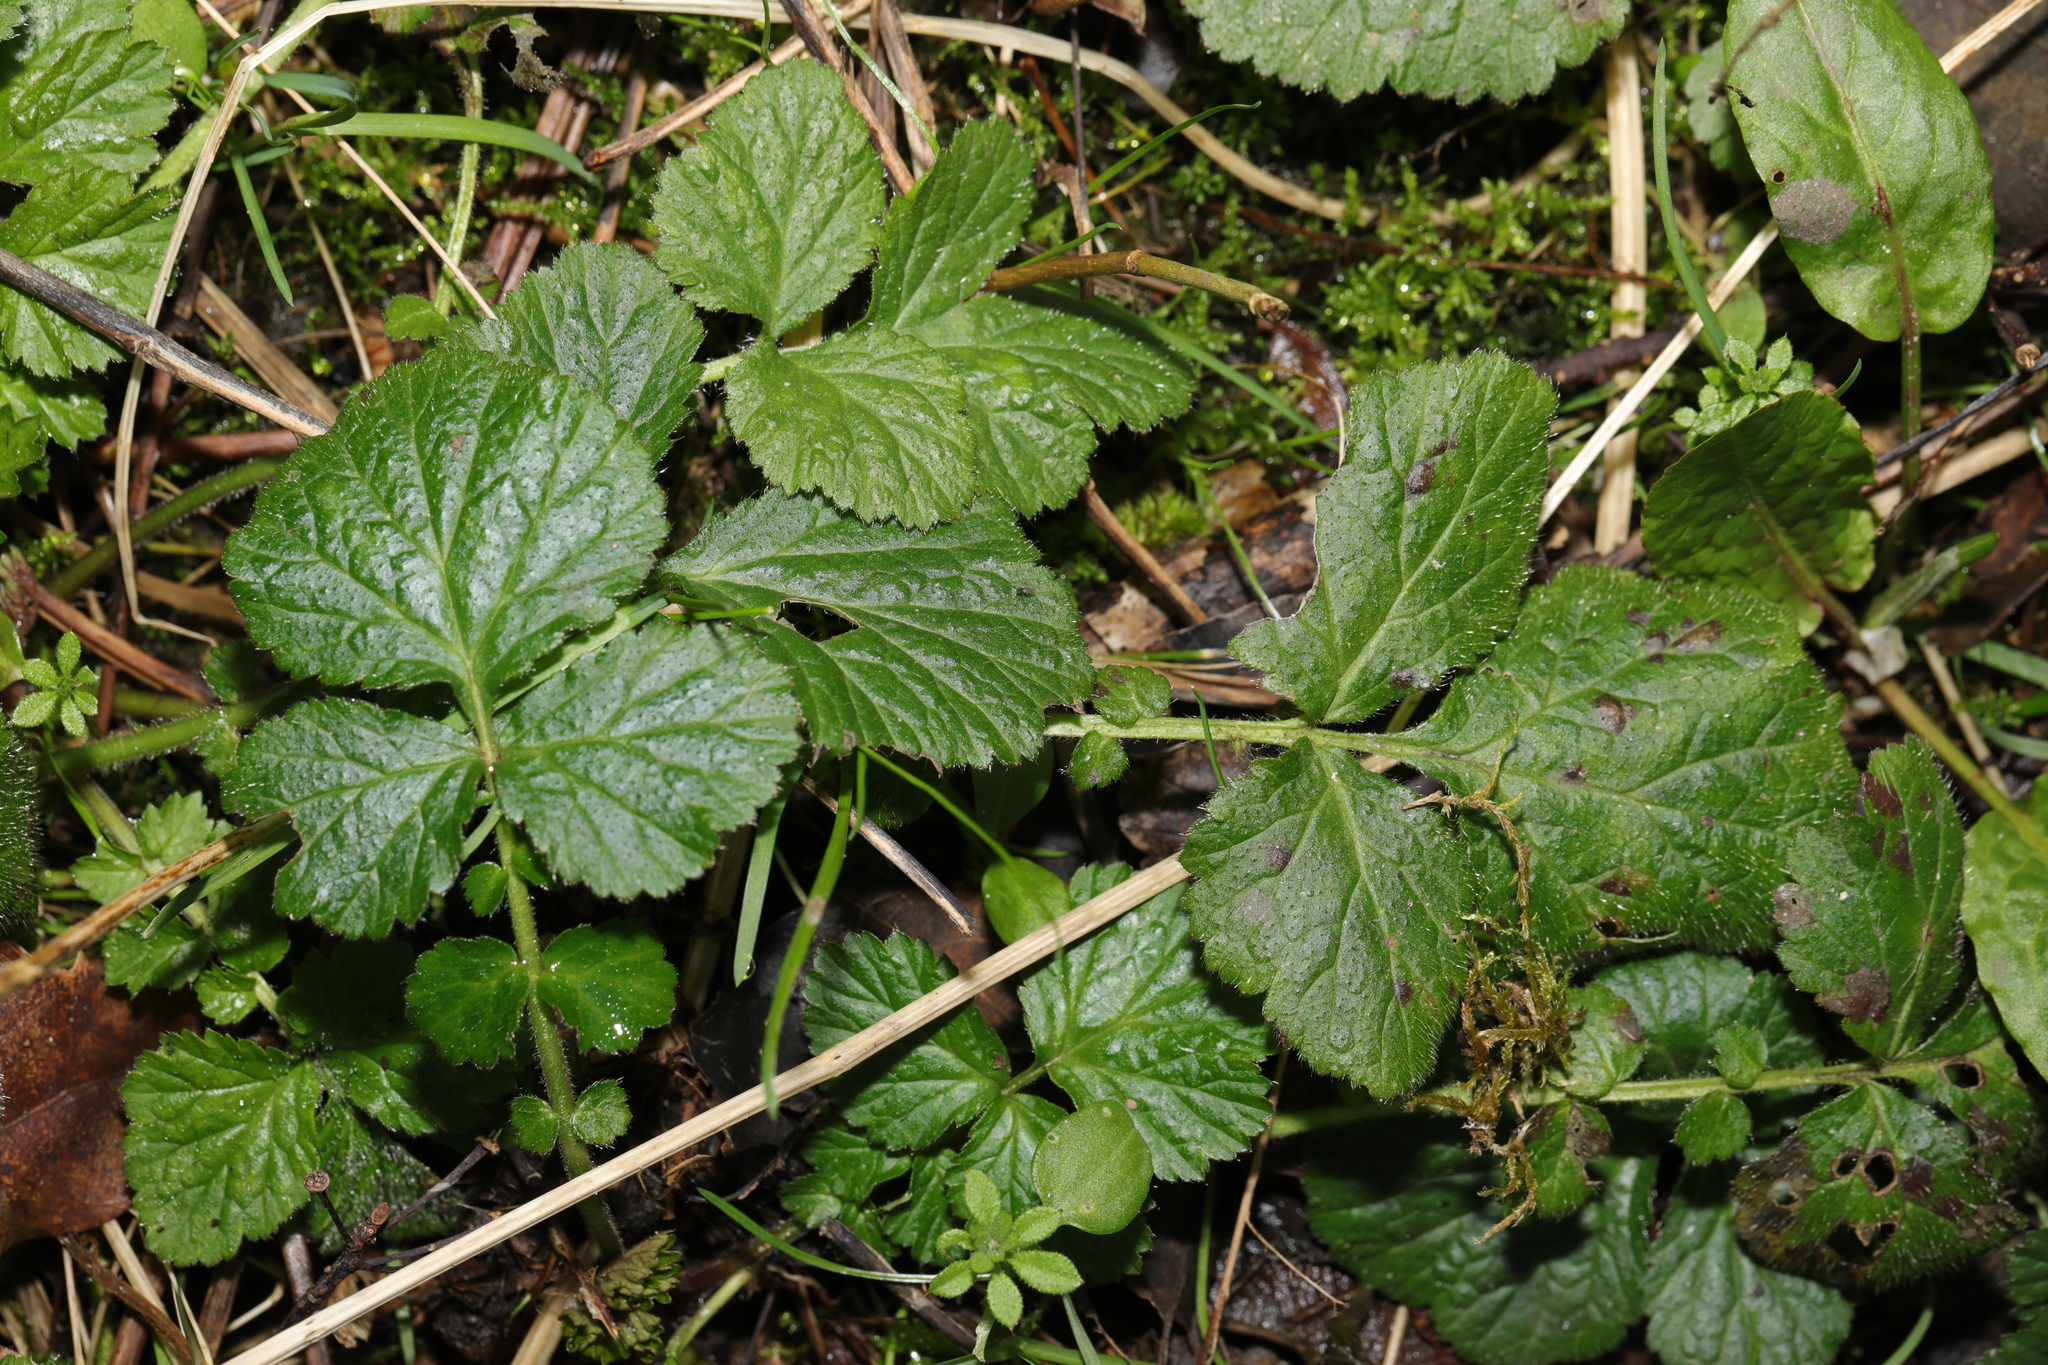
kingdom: Plantae
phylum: Tracheophyta
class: Magnoliopsida
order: Rosales
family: Rosaceae
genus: Geum
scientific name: Geum urbanum
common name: Wood avens
